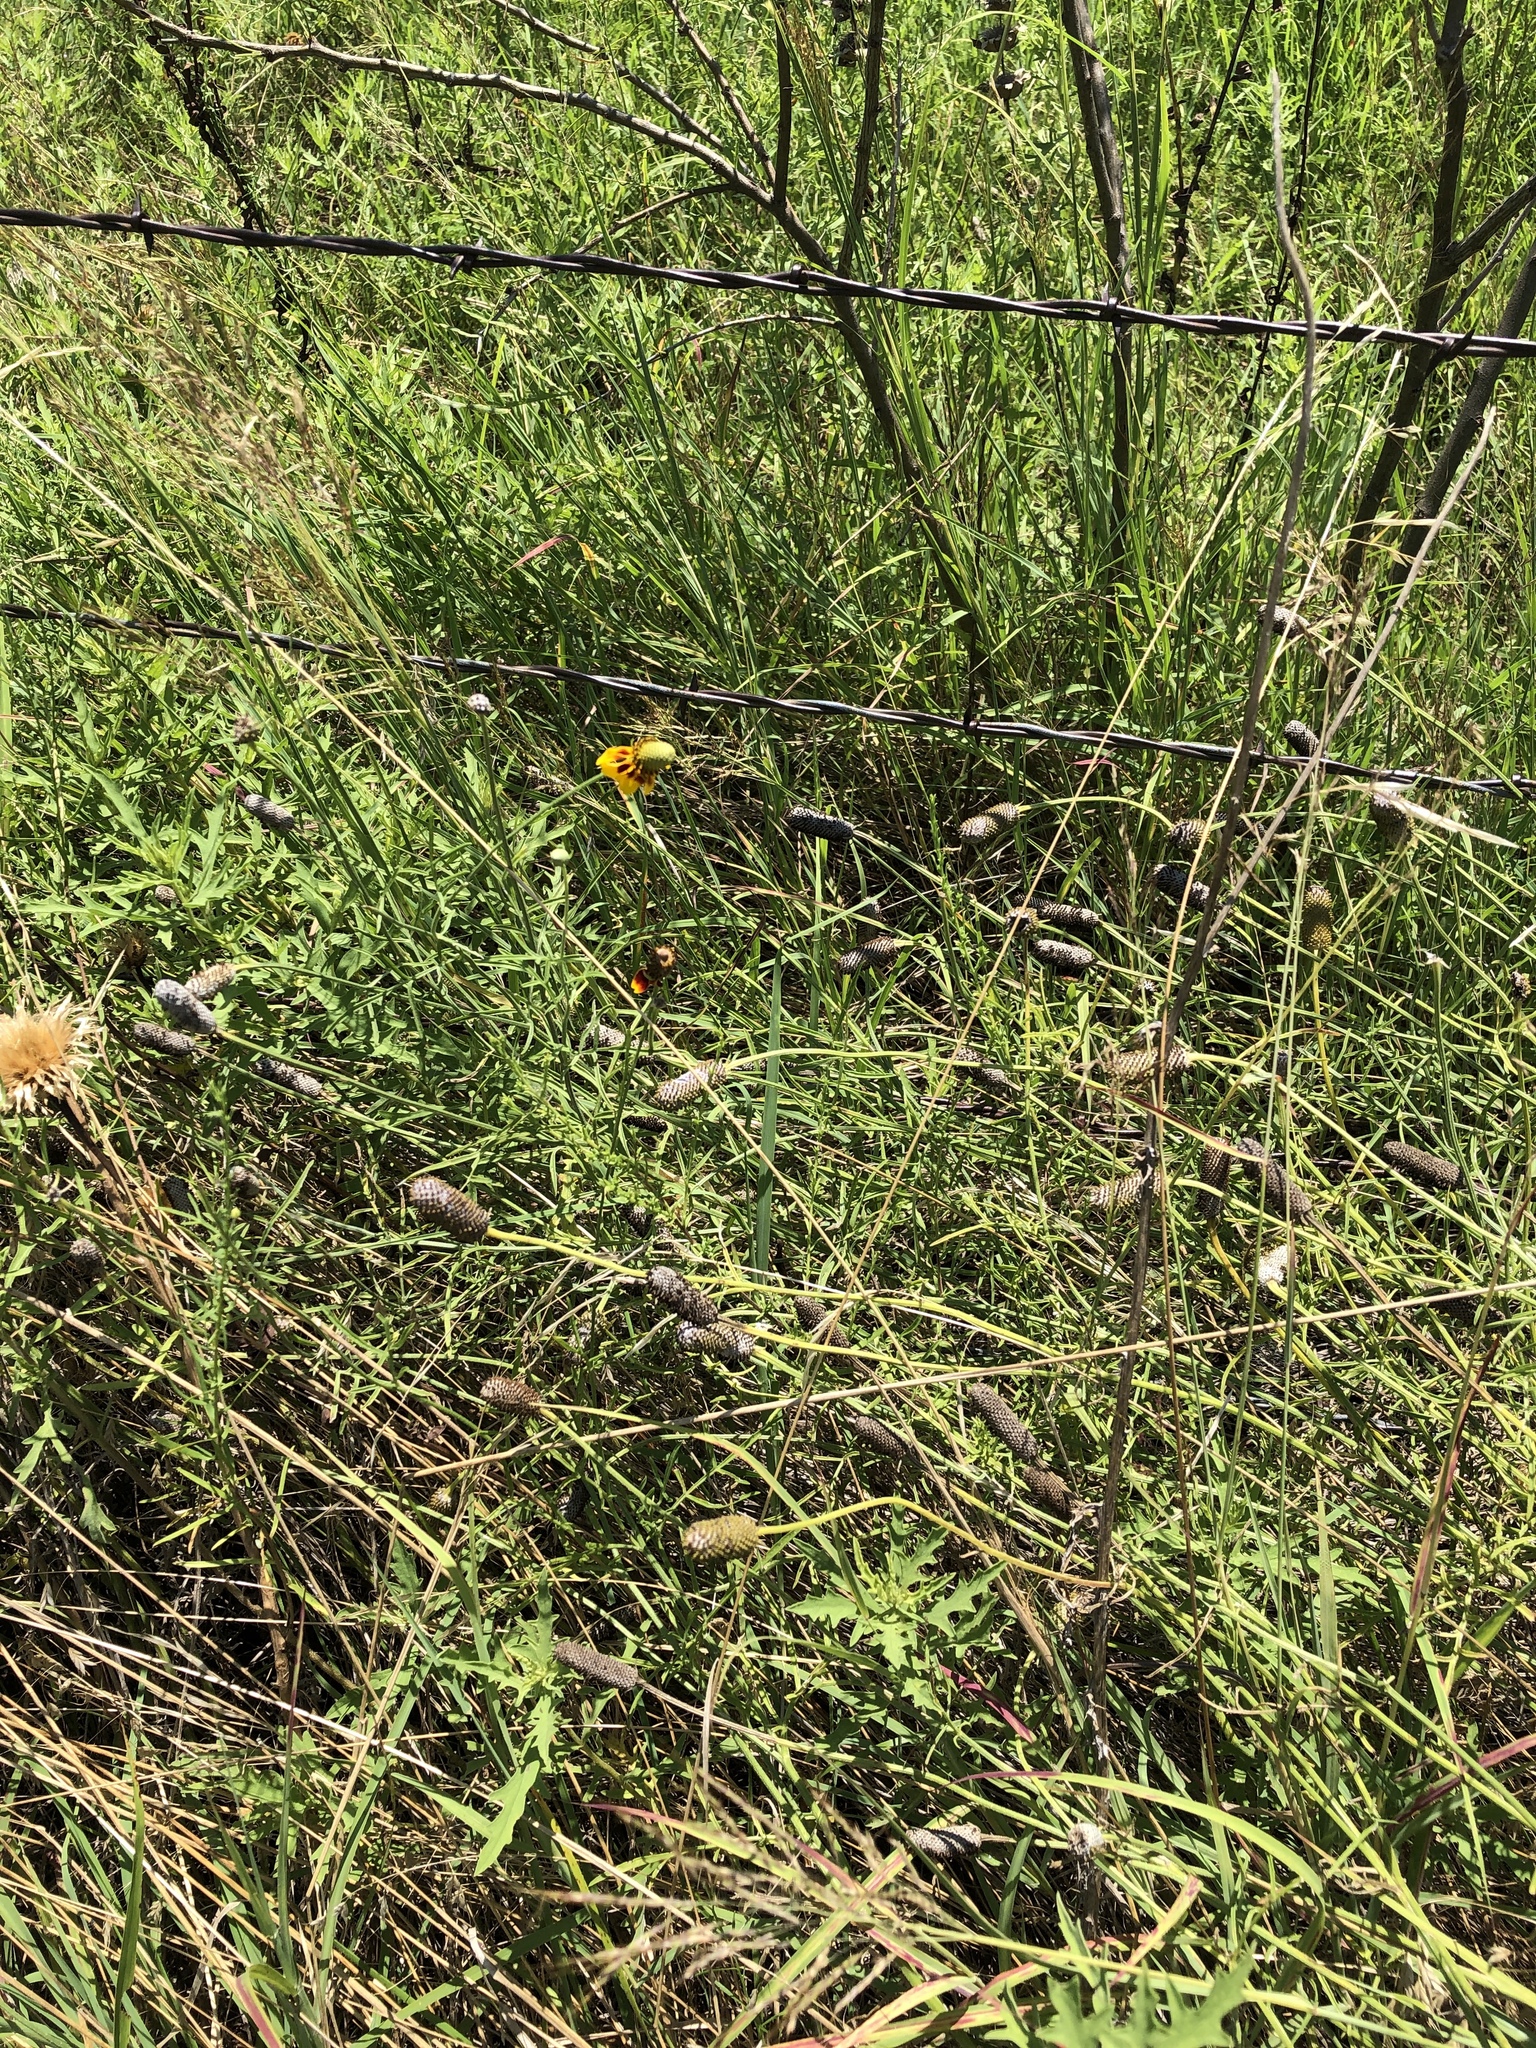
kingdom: Plantae
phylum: Tracheophyta
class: Magnoliopsida
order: Asterales
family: Asteraceae
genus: Ratibida
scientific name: Ratibida columnifera
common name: Prairie coneflower
